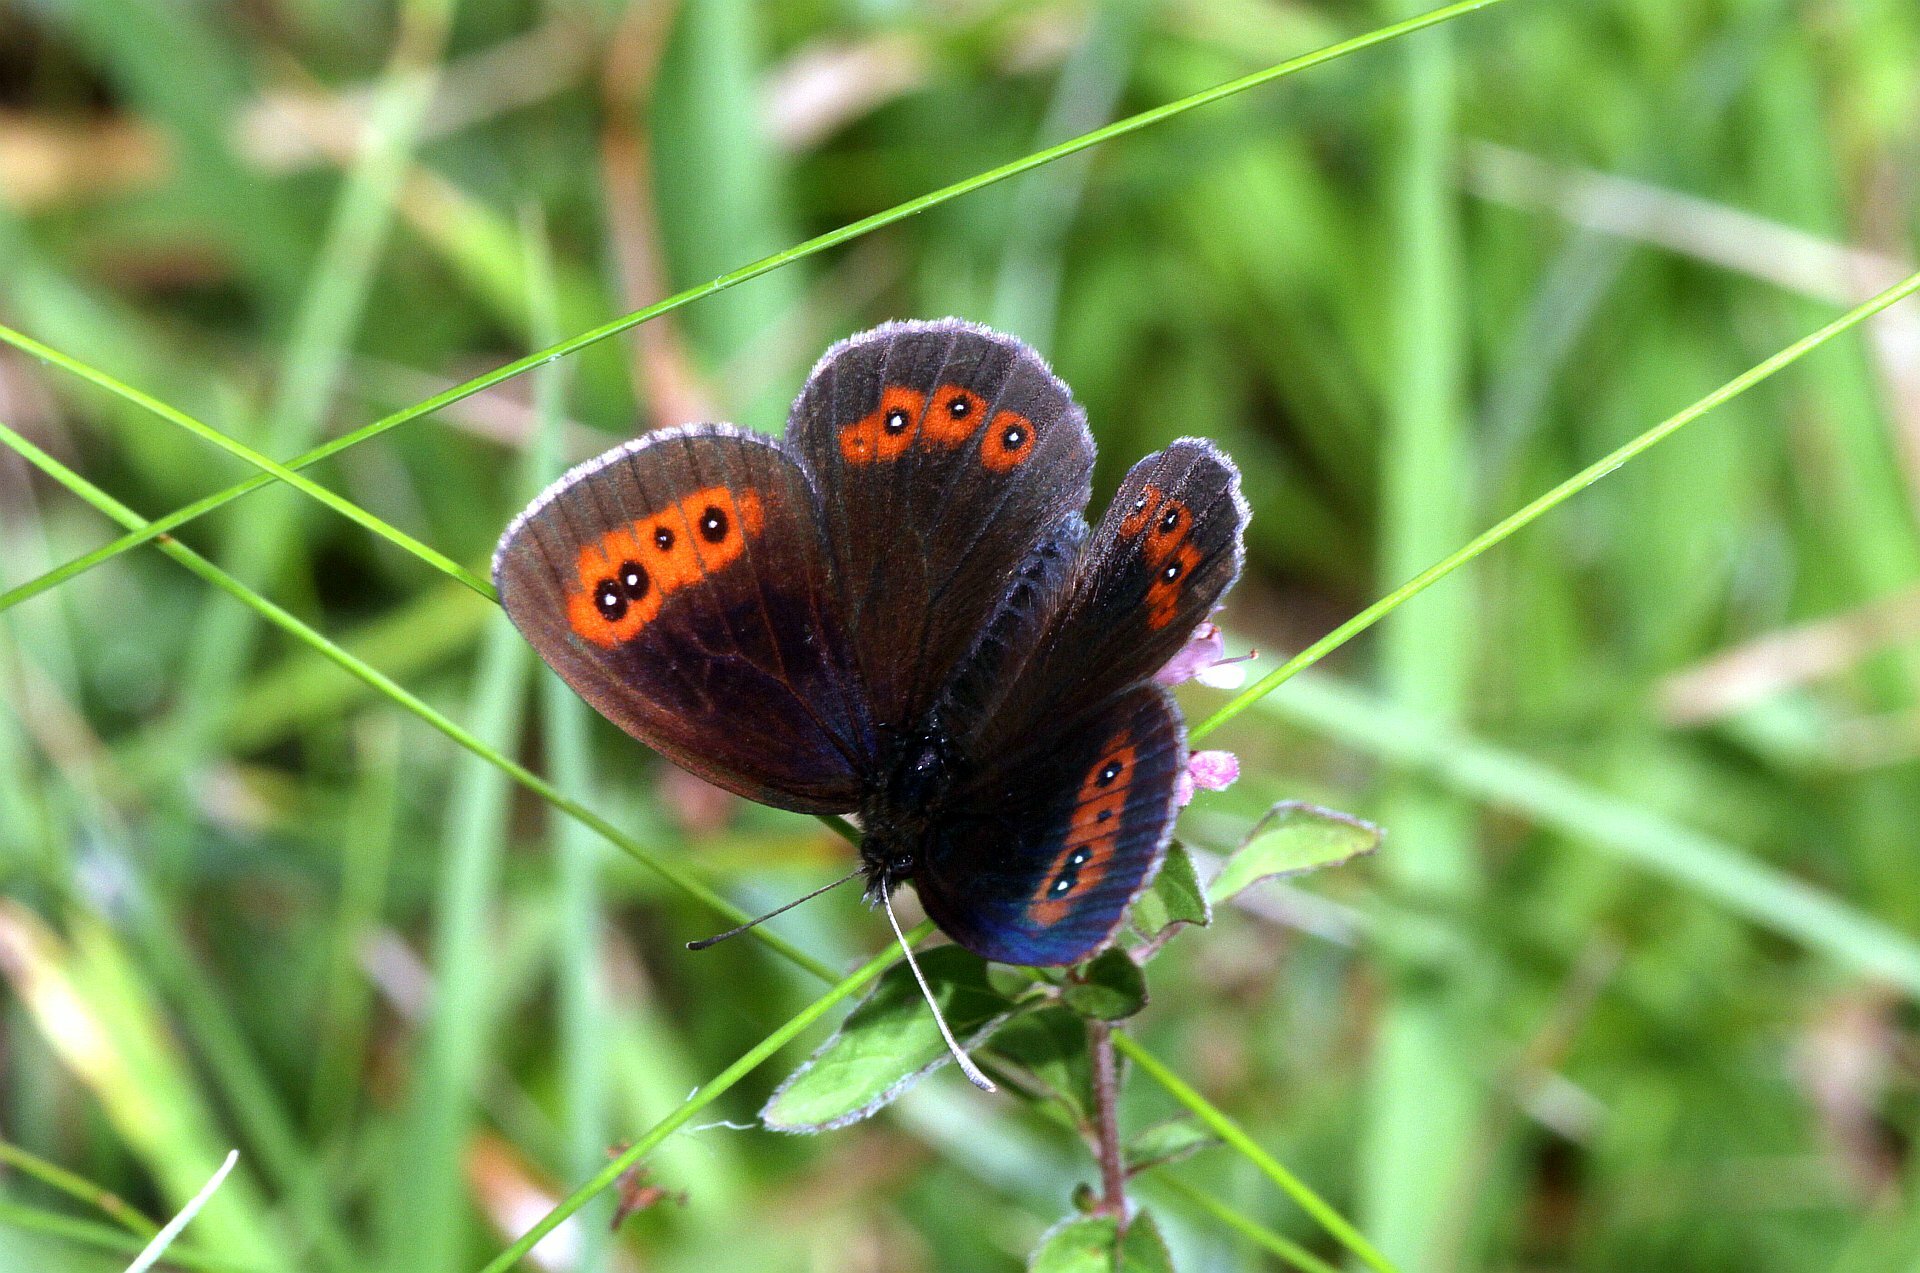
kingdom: Animalia
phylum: Arthropoda
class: Insecta
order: Lepidoptera
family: Nymphalidae
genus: Erebia
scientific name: Erebia aethiops
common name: Scotch argus
